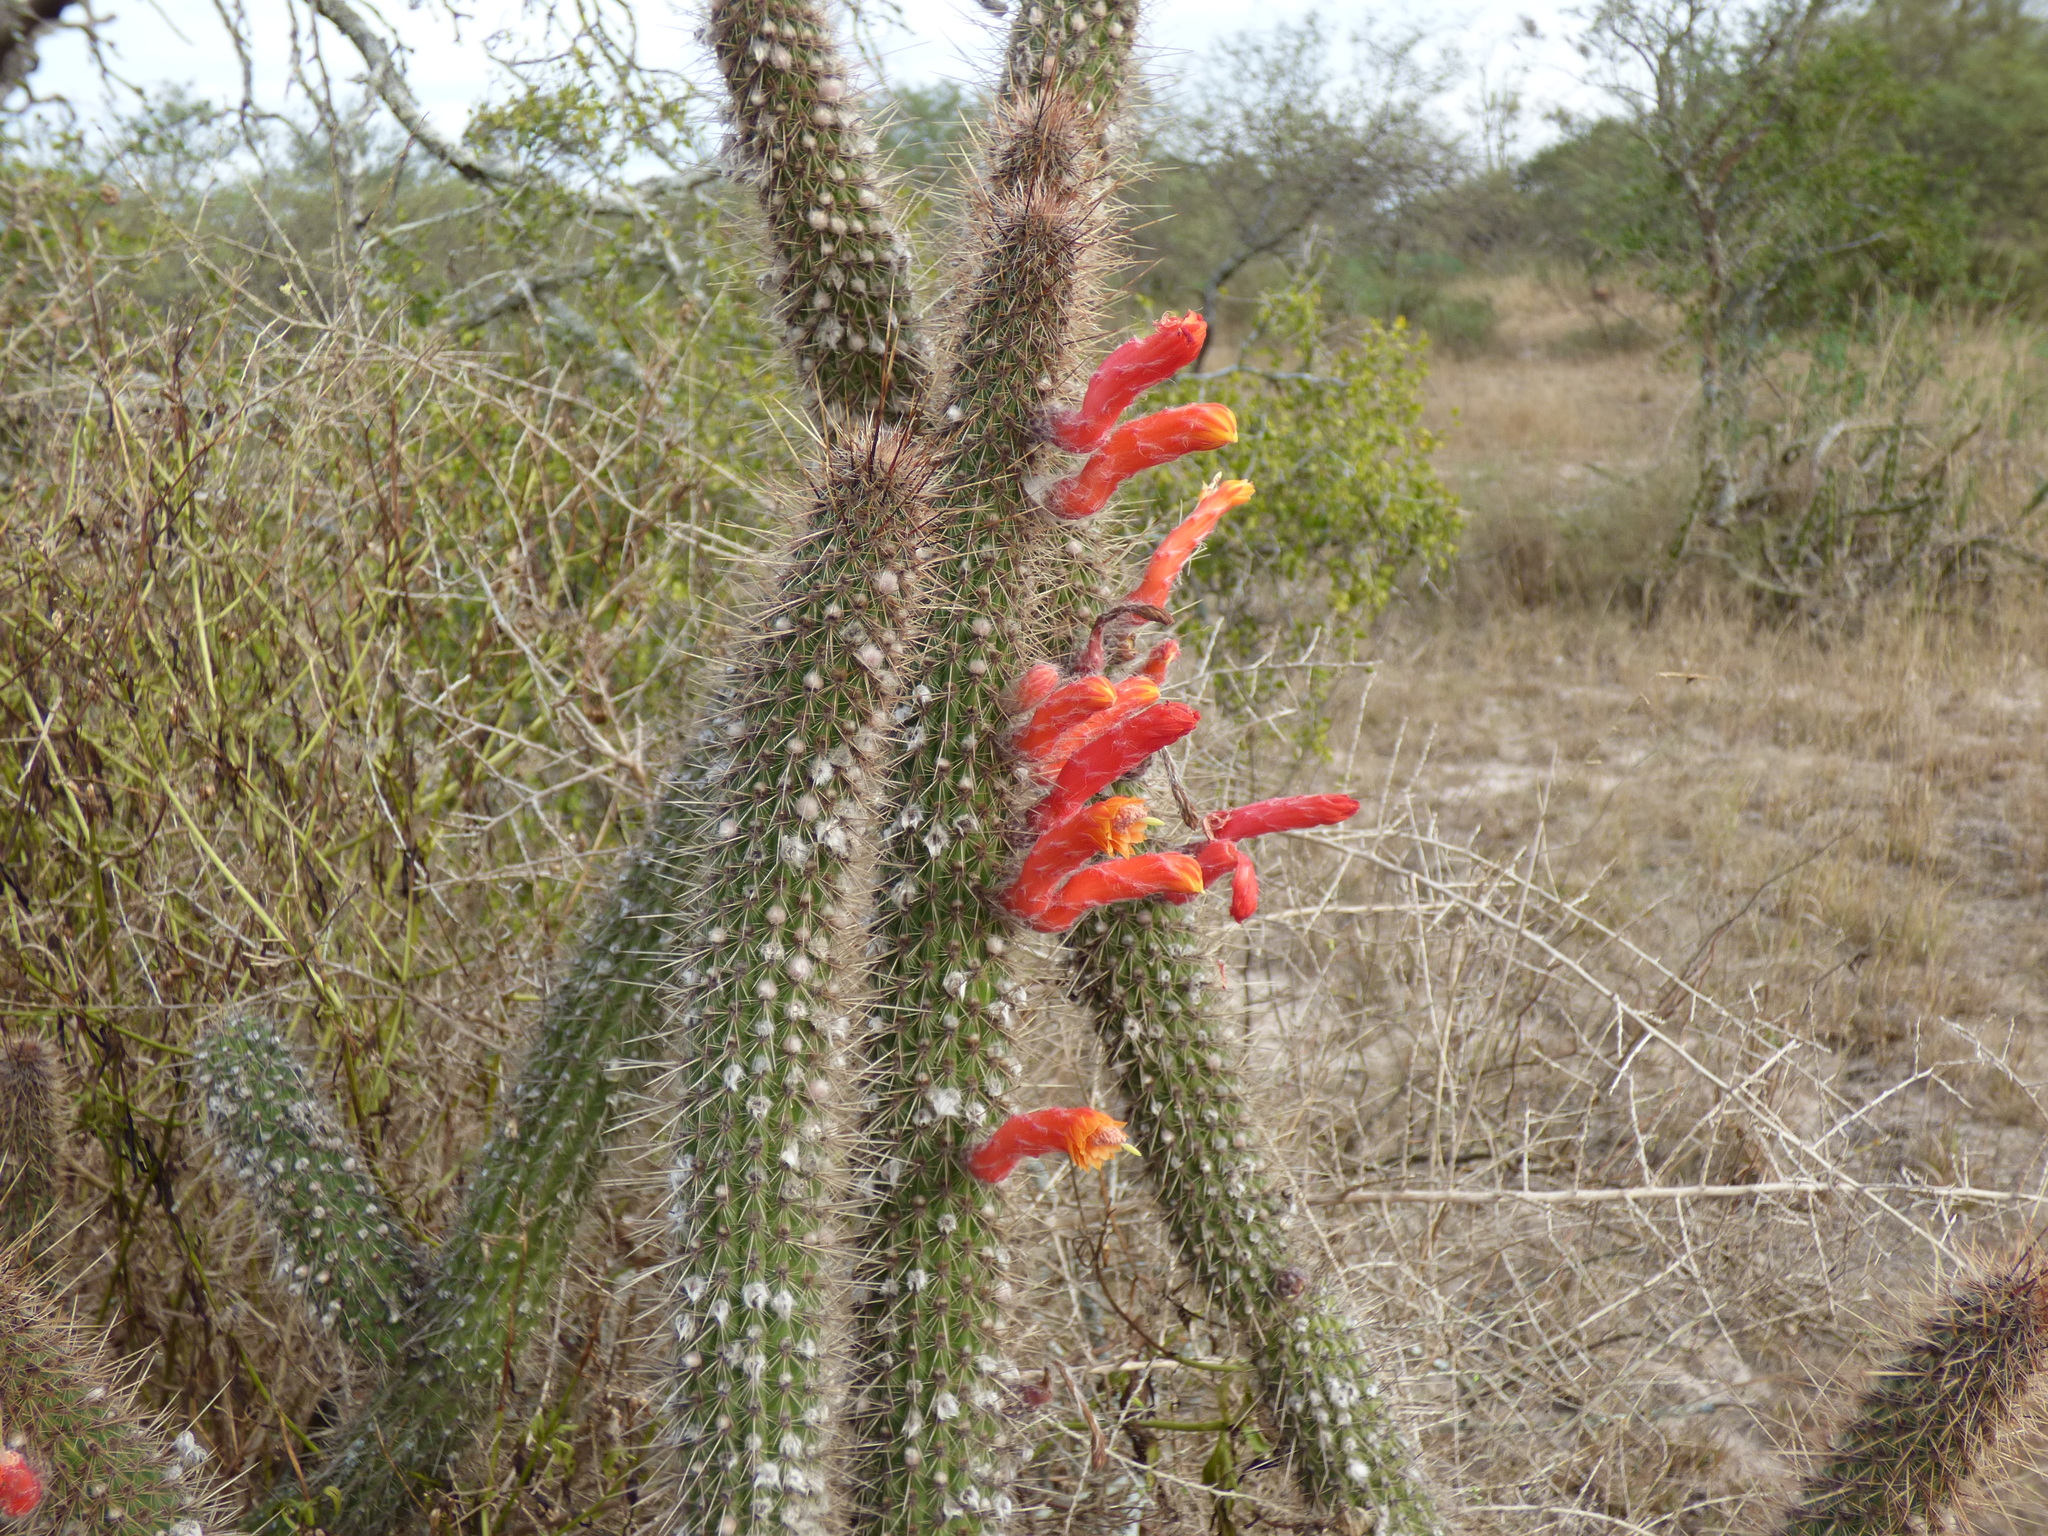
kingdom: Plantae
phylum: Tracheophyta
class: Magnoliopsida
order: Caryophyllales
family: Cactaceae
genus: Cleistocactus
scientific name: Cleistocactus baumannii
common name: Scarlet-bugler
